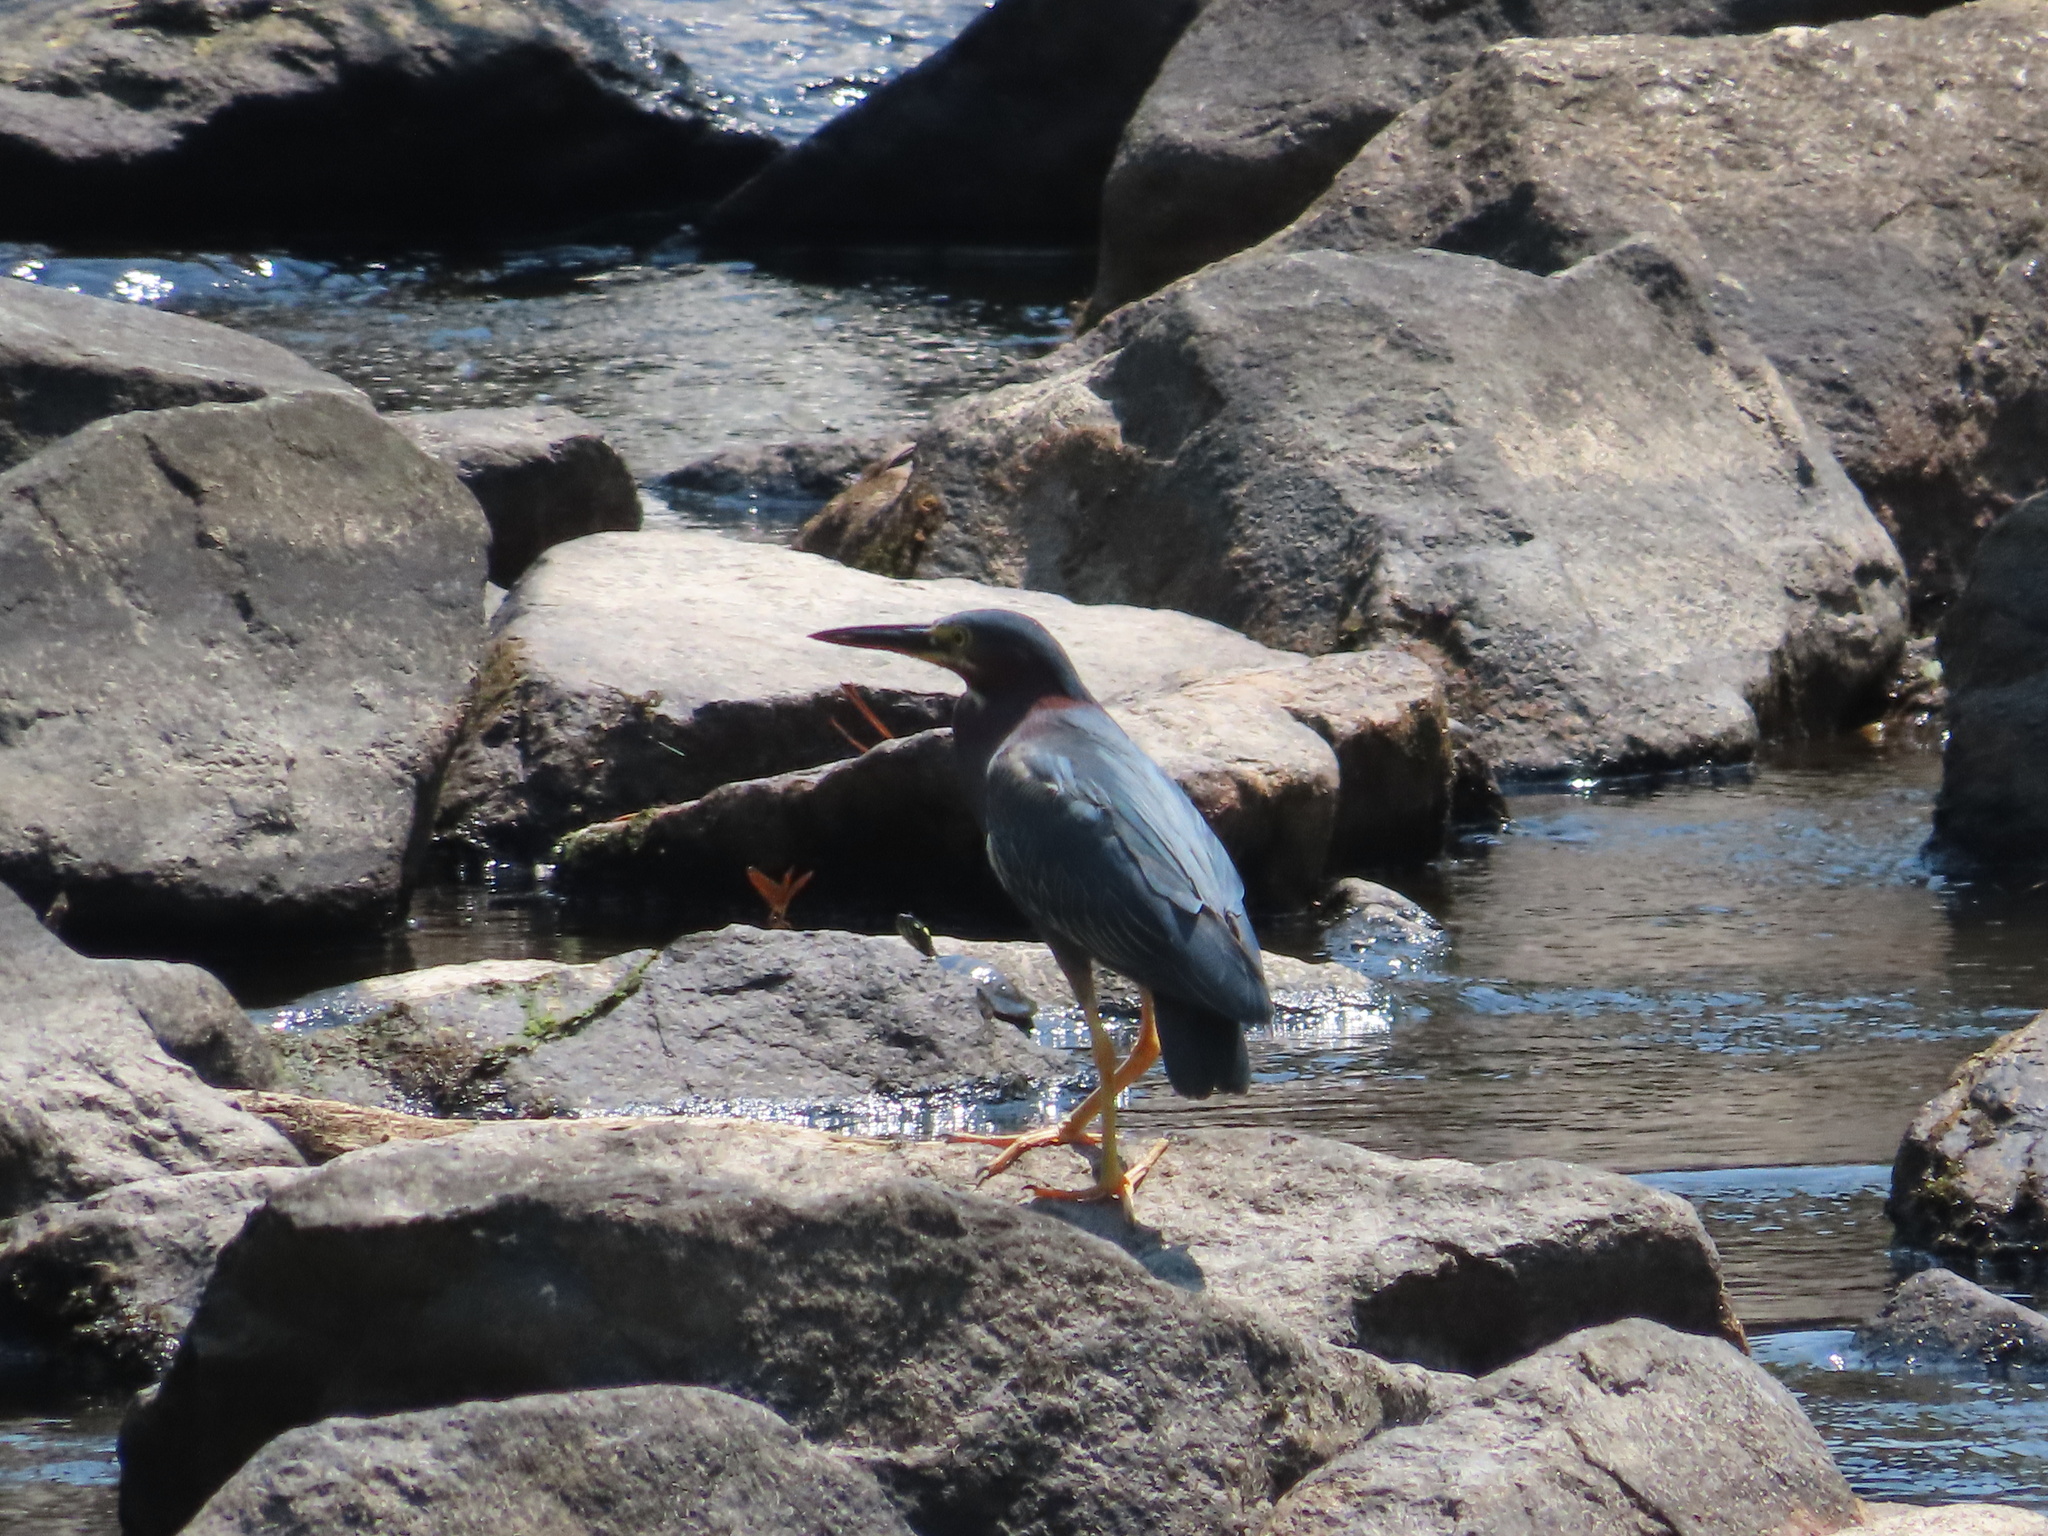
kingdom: Animalia
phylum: Chordata
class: Aves
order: Pelecaniformes
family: Ardeidae
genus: Butorides
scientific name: Butorides virescens
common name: Green heron
